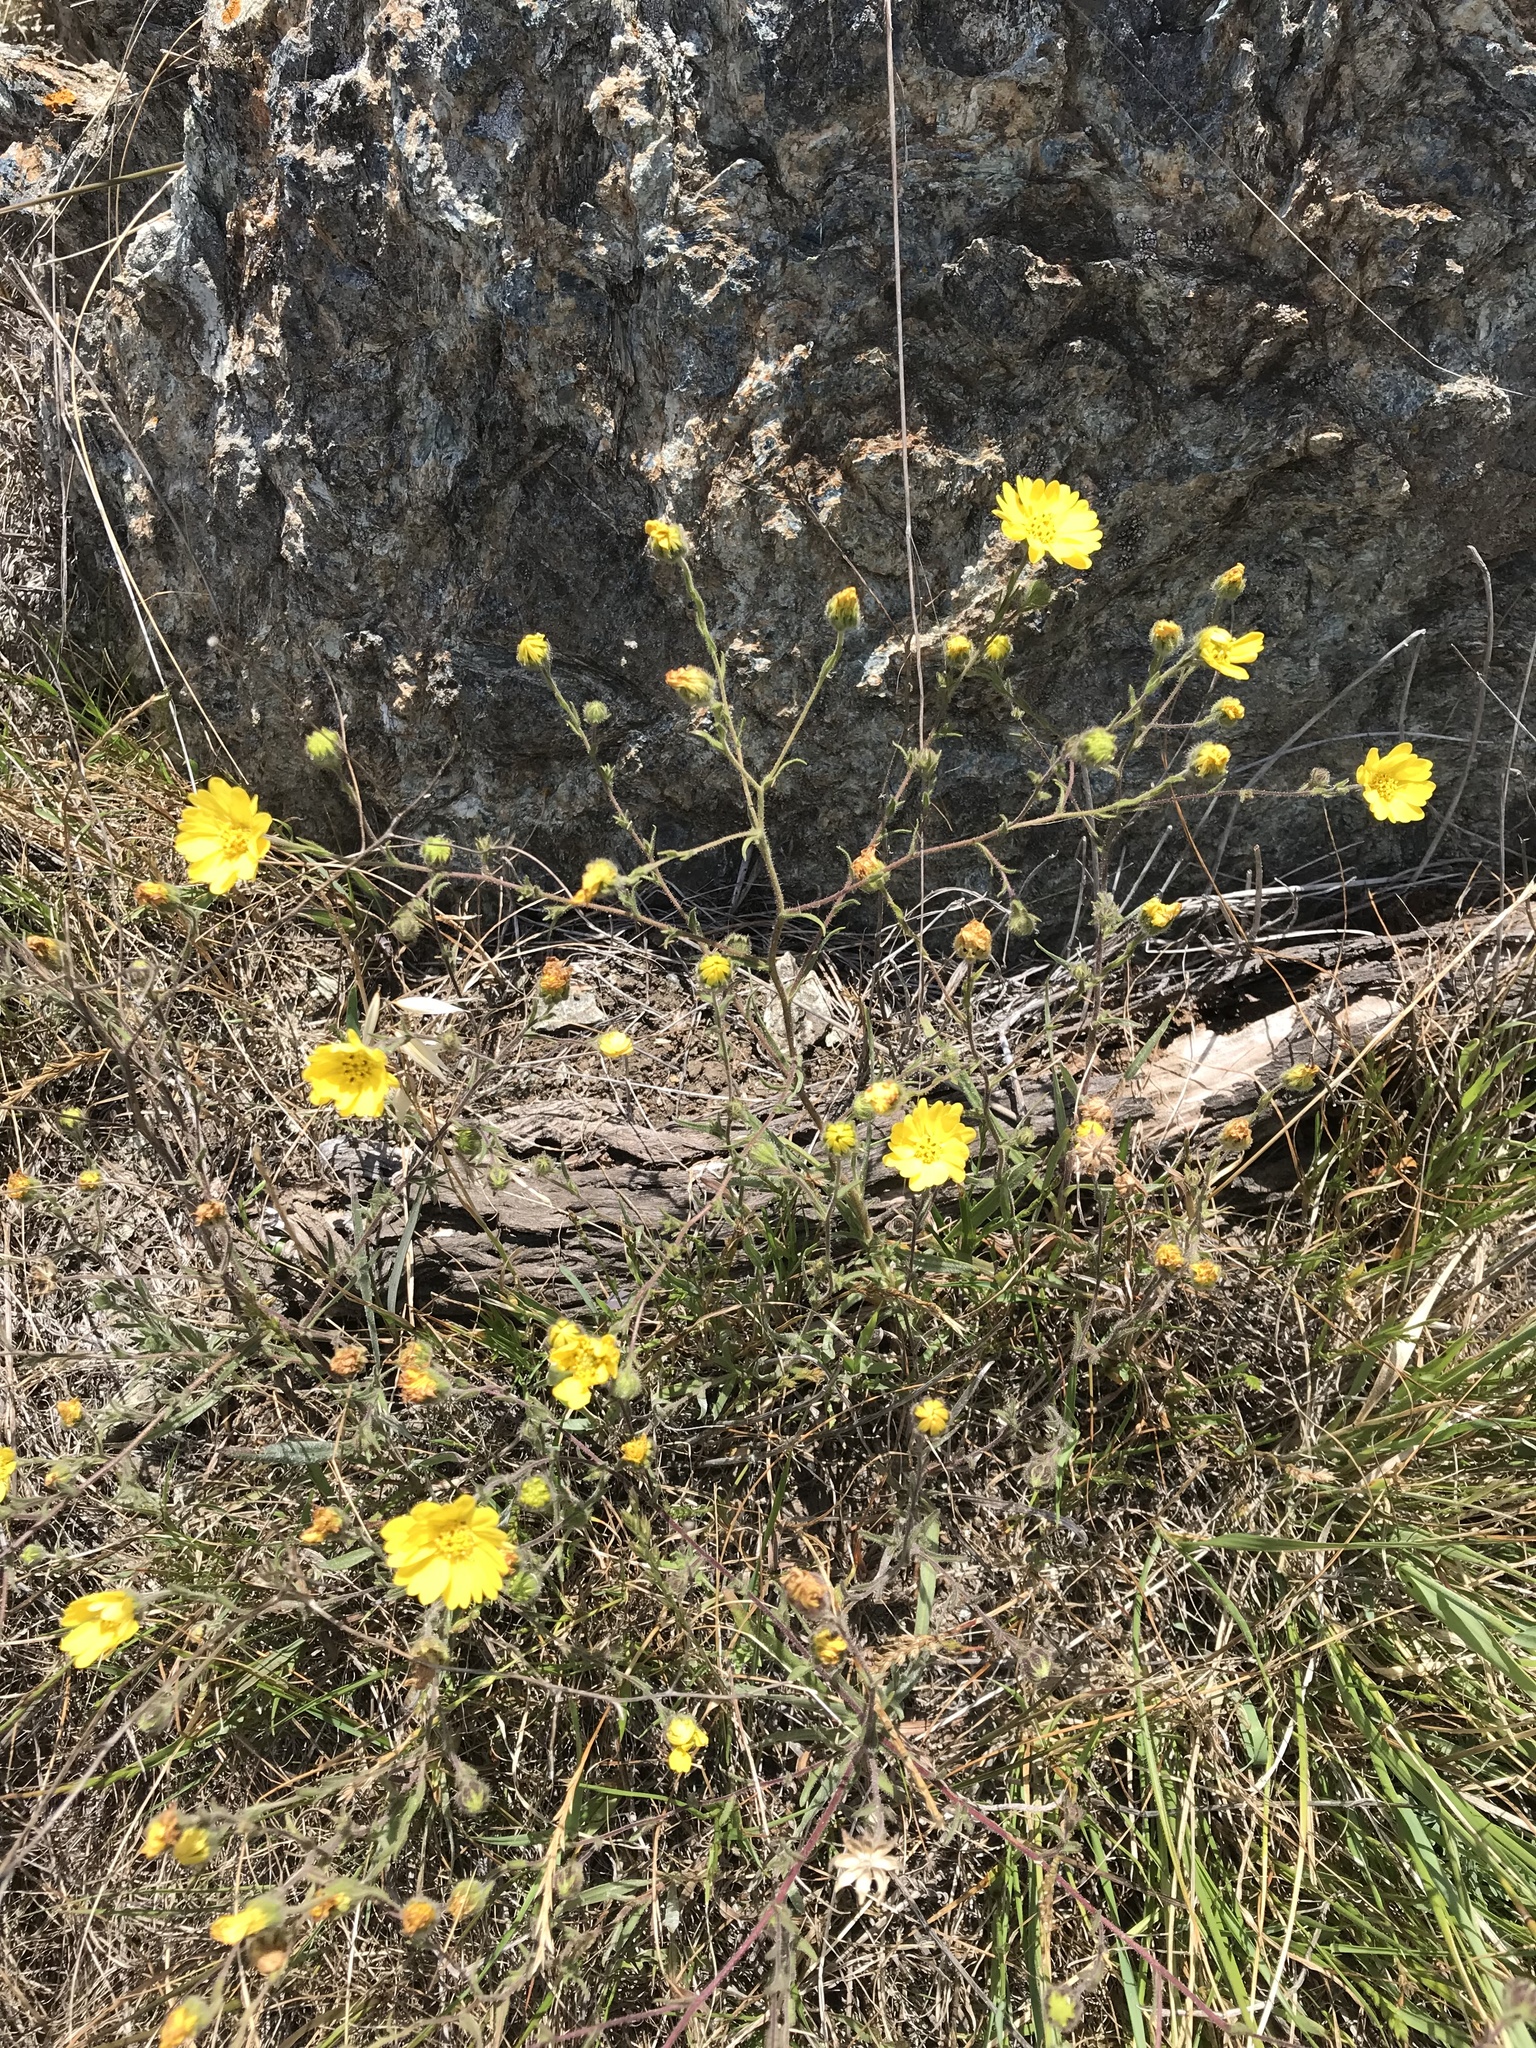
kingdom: Plantae
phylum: Tracheophyta
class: Magnoliopsida
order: Asterales
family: Asteraceae
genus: Hemizonia
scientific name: Hemizonia congesta
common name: Hayfield tarweed
